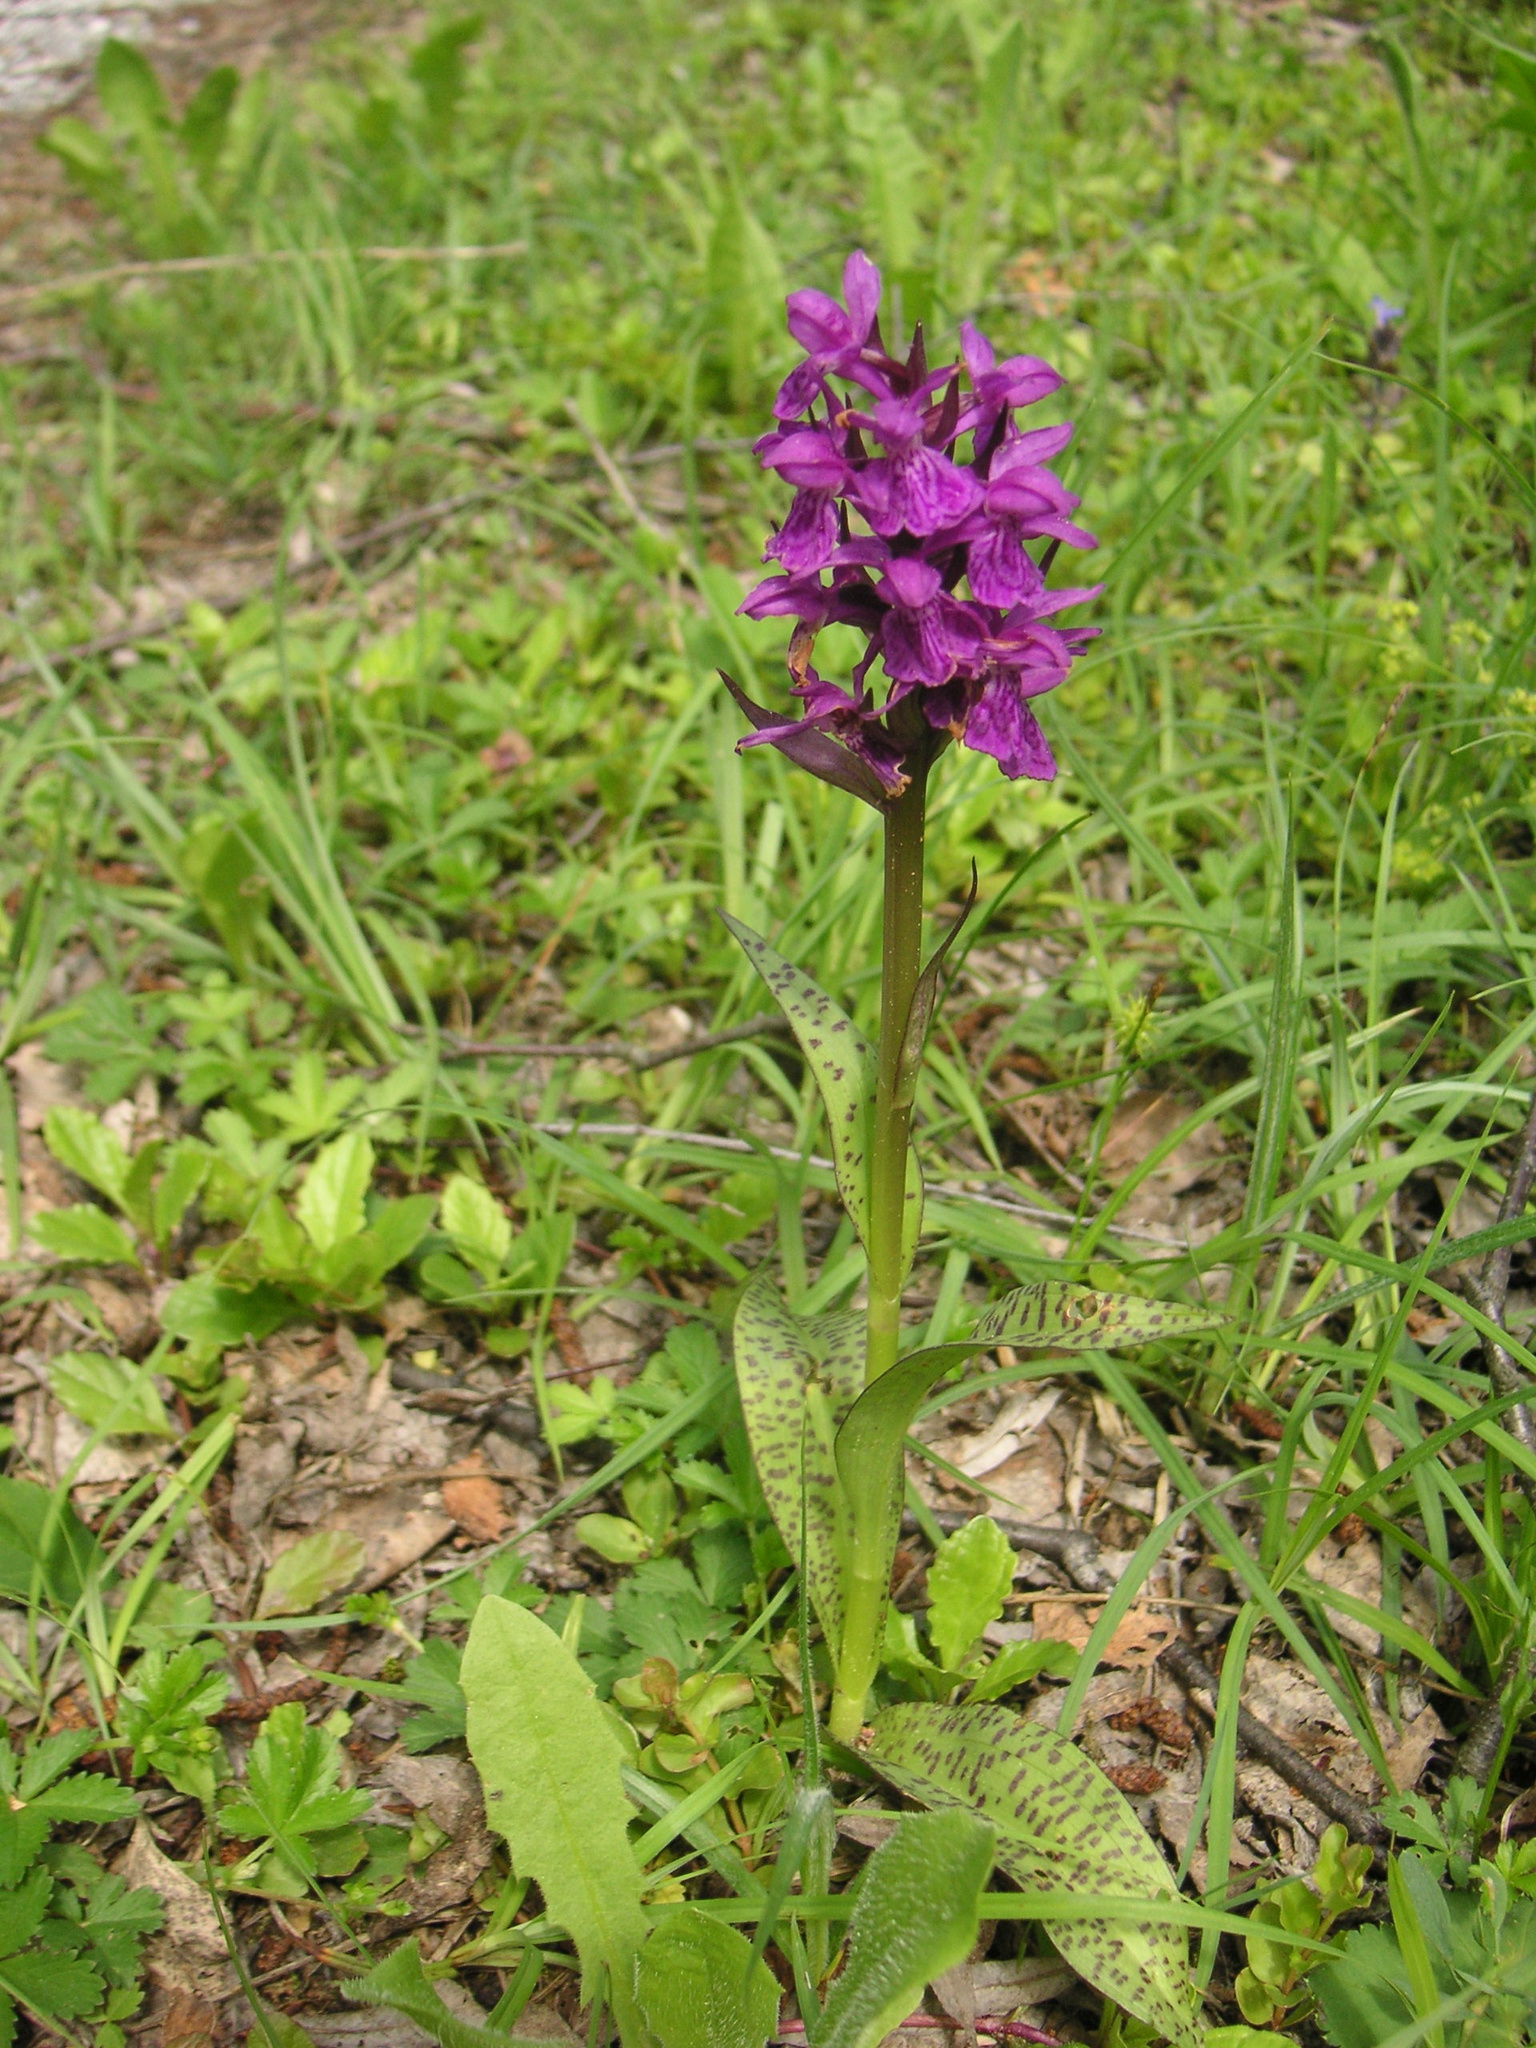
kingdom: Plantae
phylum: Tracheophyta
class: Liliopsida
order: Asparagales
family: Orchidaceae
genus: Dactylorhiza
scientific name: Dactylorhiza majalis
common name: Marsh orchid
